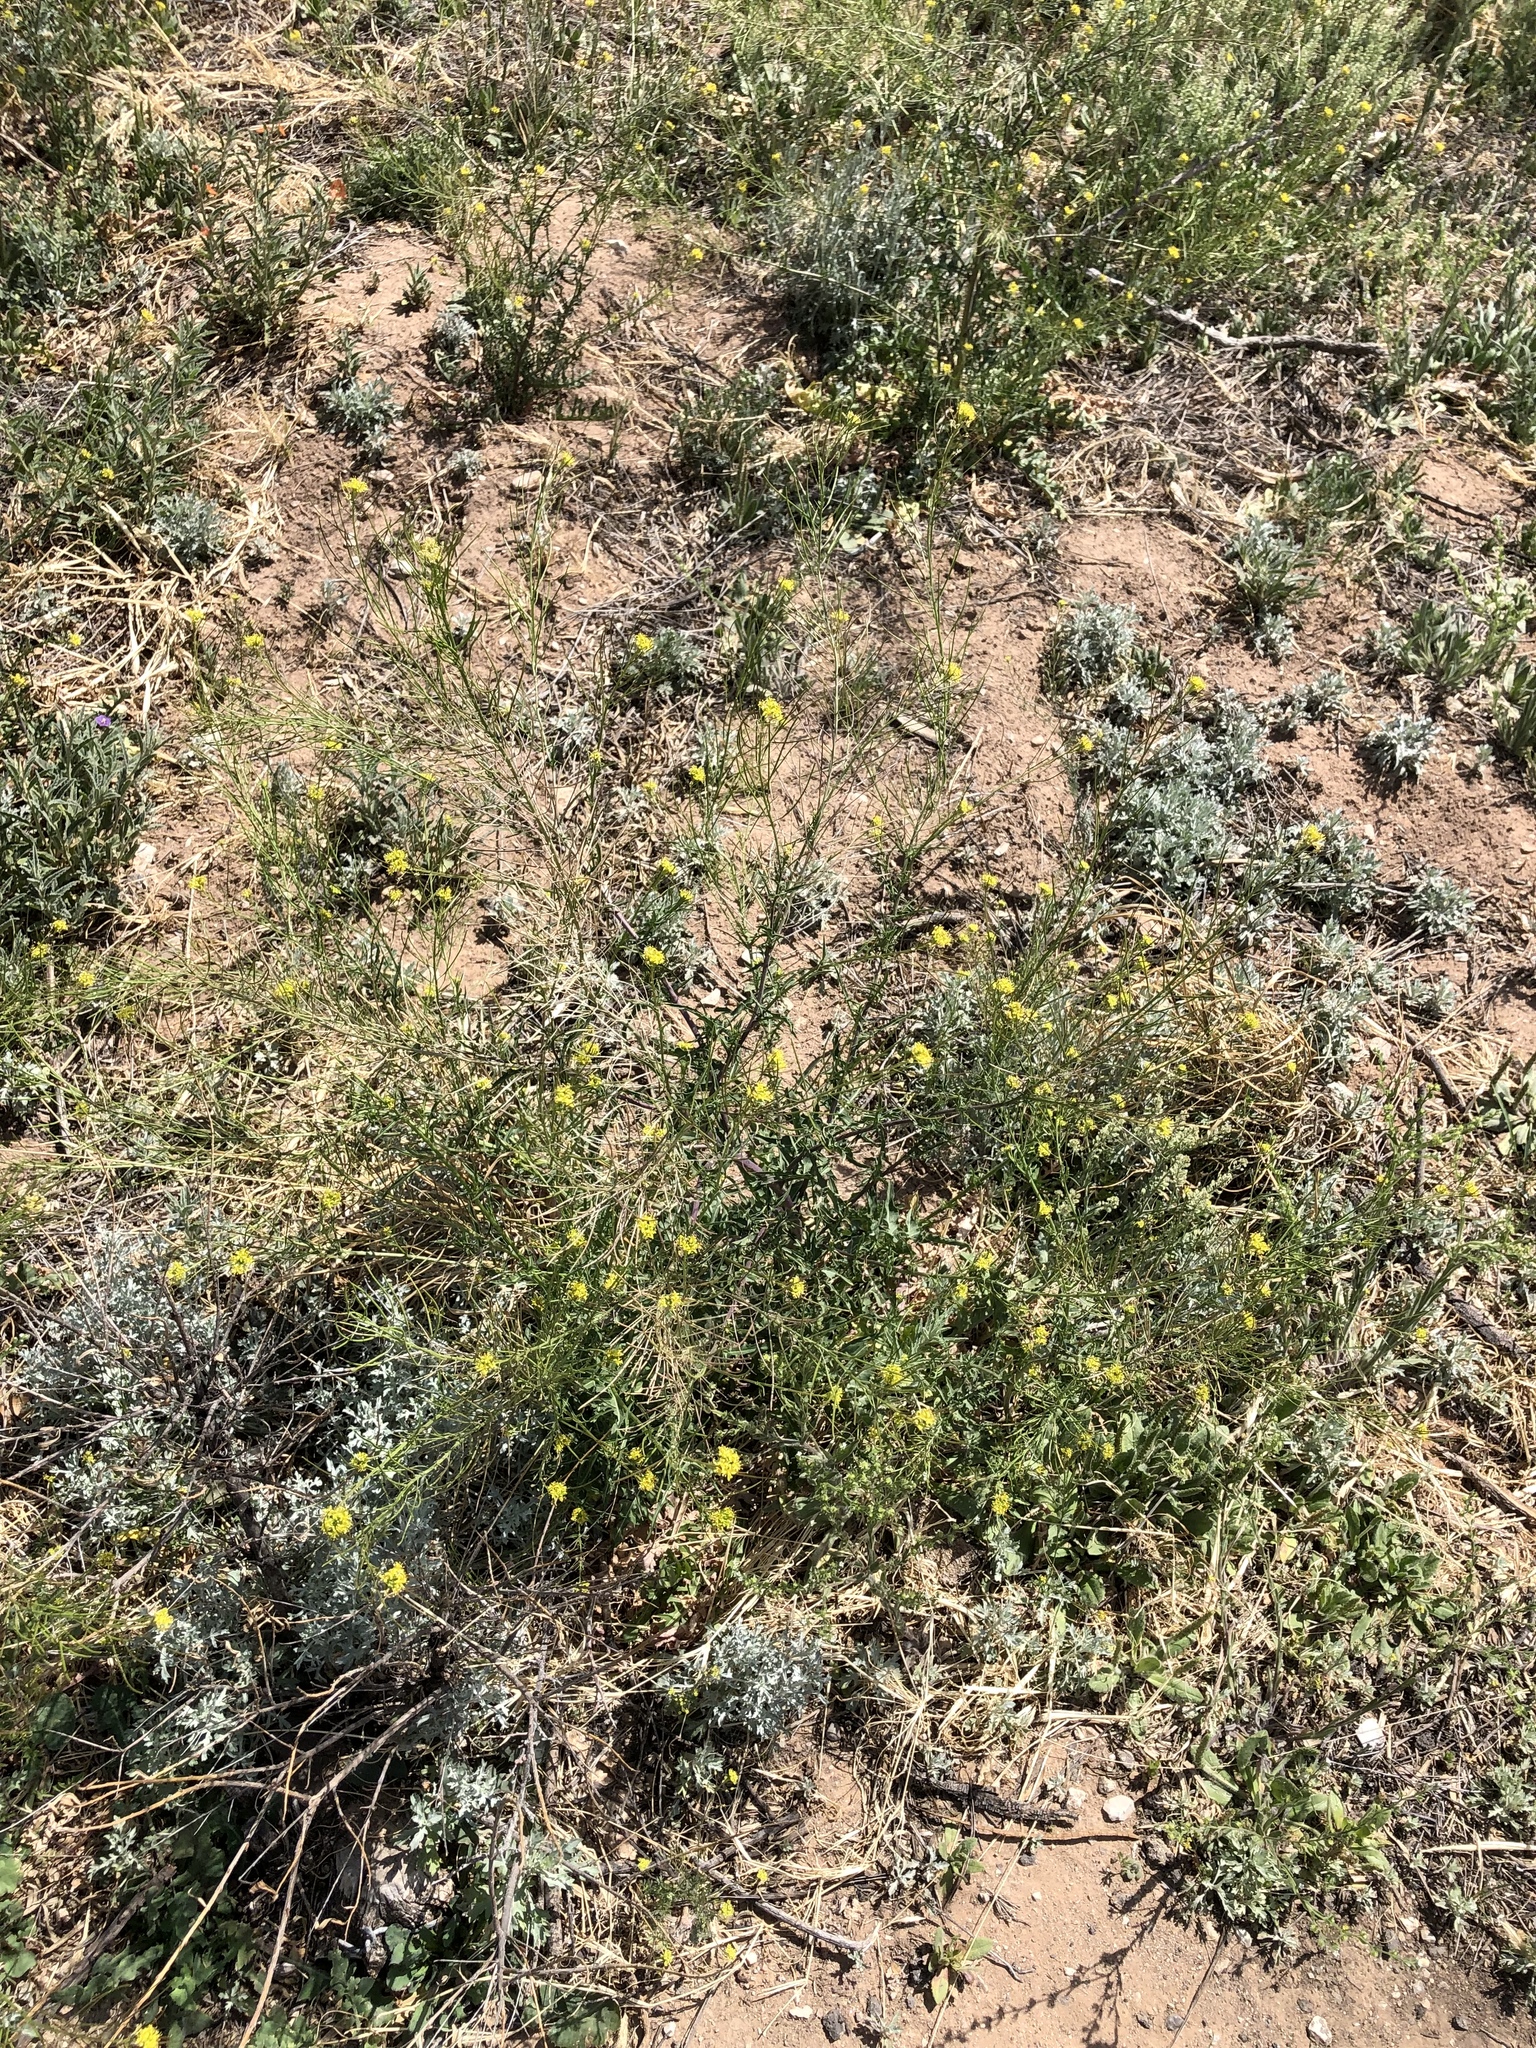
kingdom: Plantae
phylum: Tracheophyta
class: Magnoliopsida
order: Brassicales
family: Brassicaceae
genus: Sisymbrium
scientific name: Sisymbrium irio
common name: London rocket
